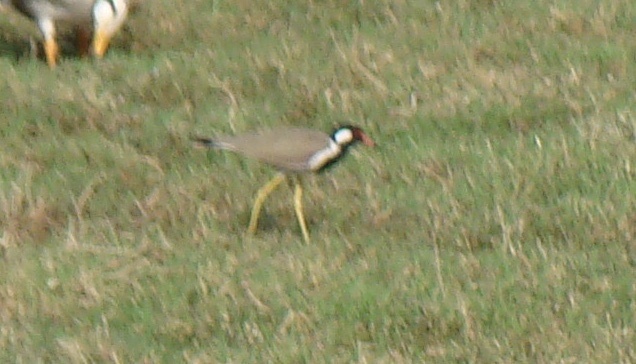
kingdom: Animalia
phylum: Chordata
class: Aves
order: Charadriiformes
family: Charadriidae
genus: Vanellus
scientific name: Vanellus indicus
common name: Red-wattled lapwing
